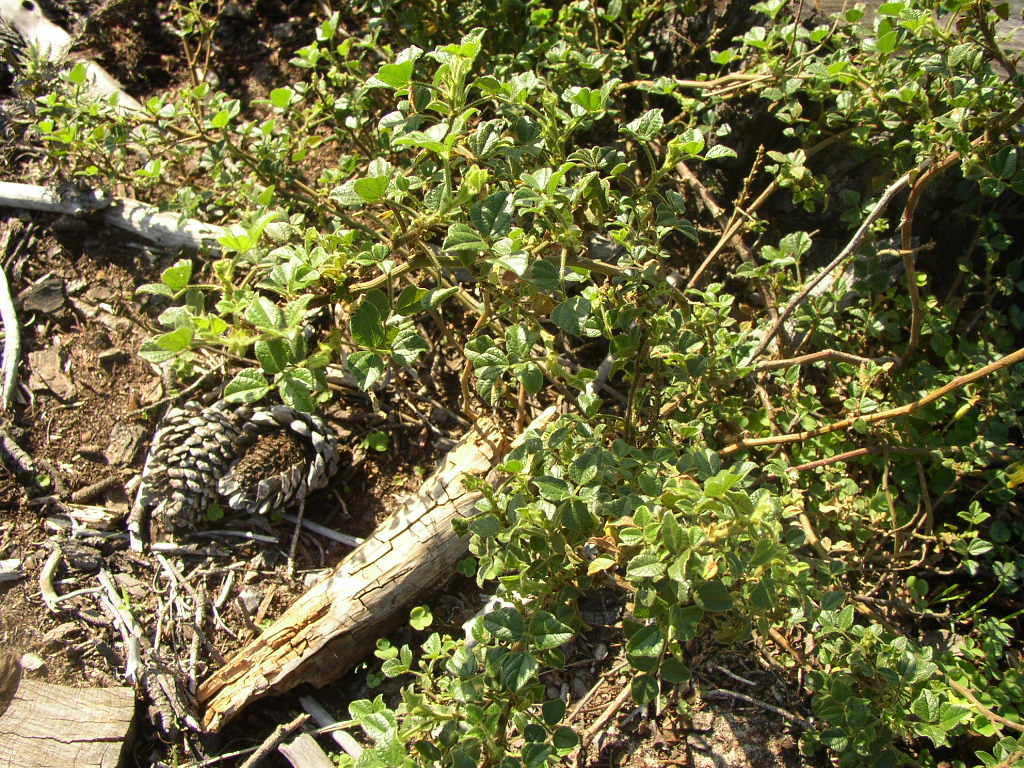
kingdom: Plantae
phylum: Tracheophyta
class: Magnoliopsida
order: Fabales
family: Fabaceae
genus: Bolusafra
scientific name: Bolusafra bituminosa
